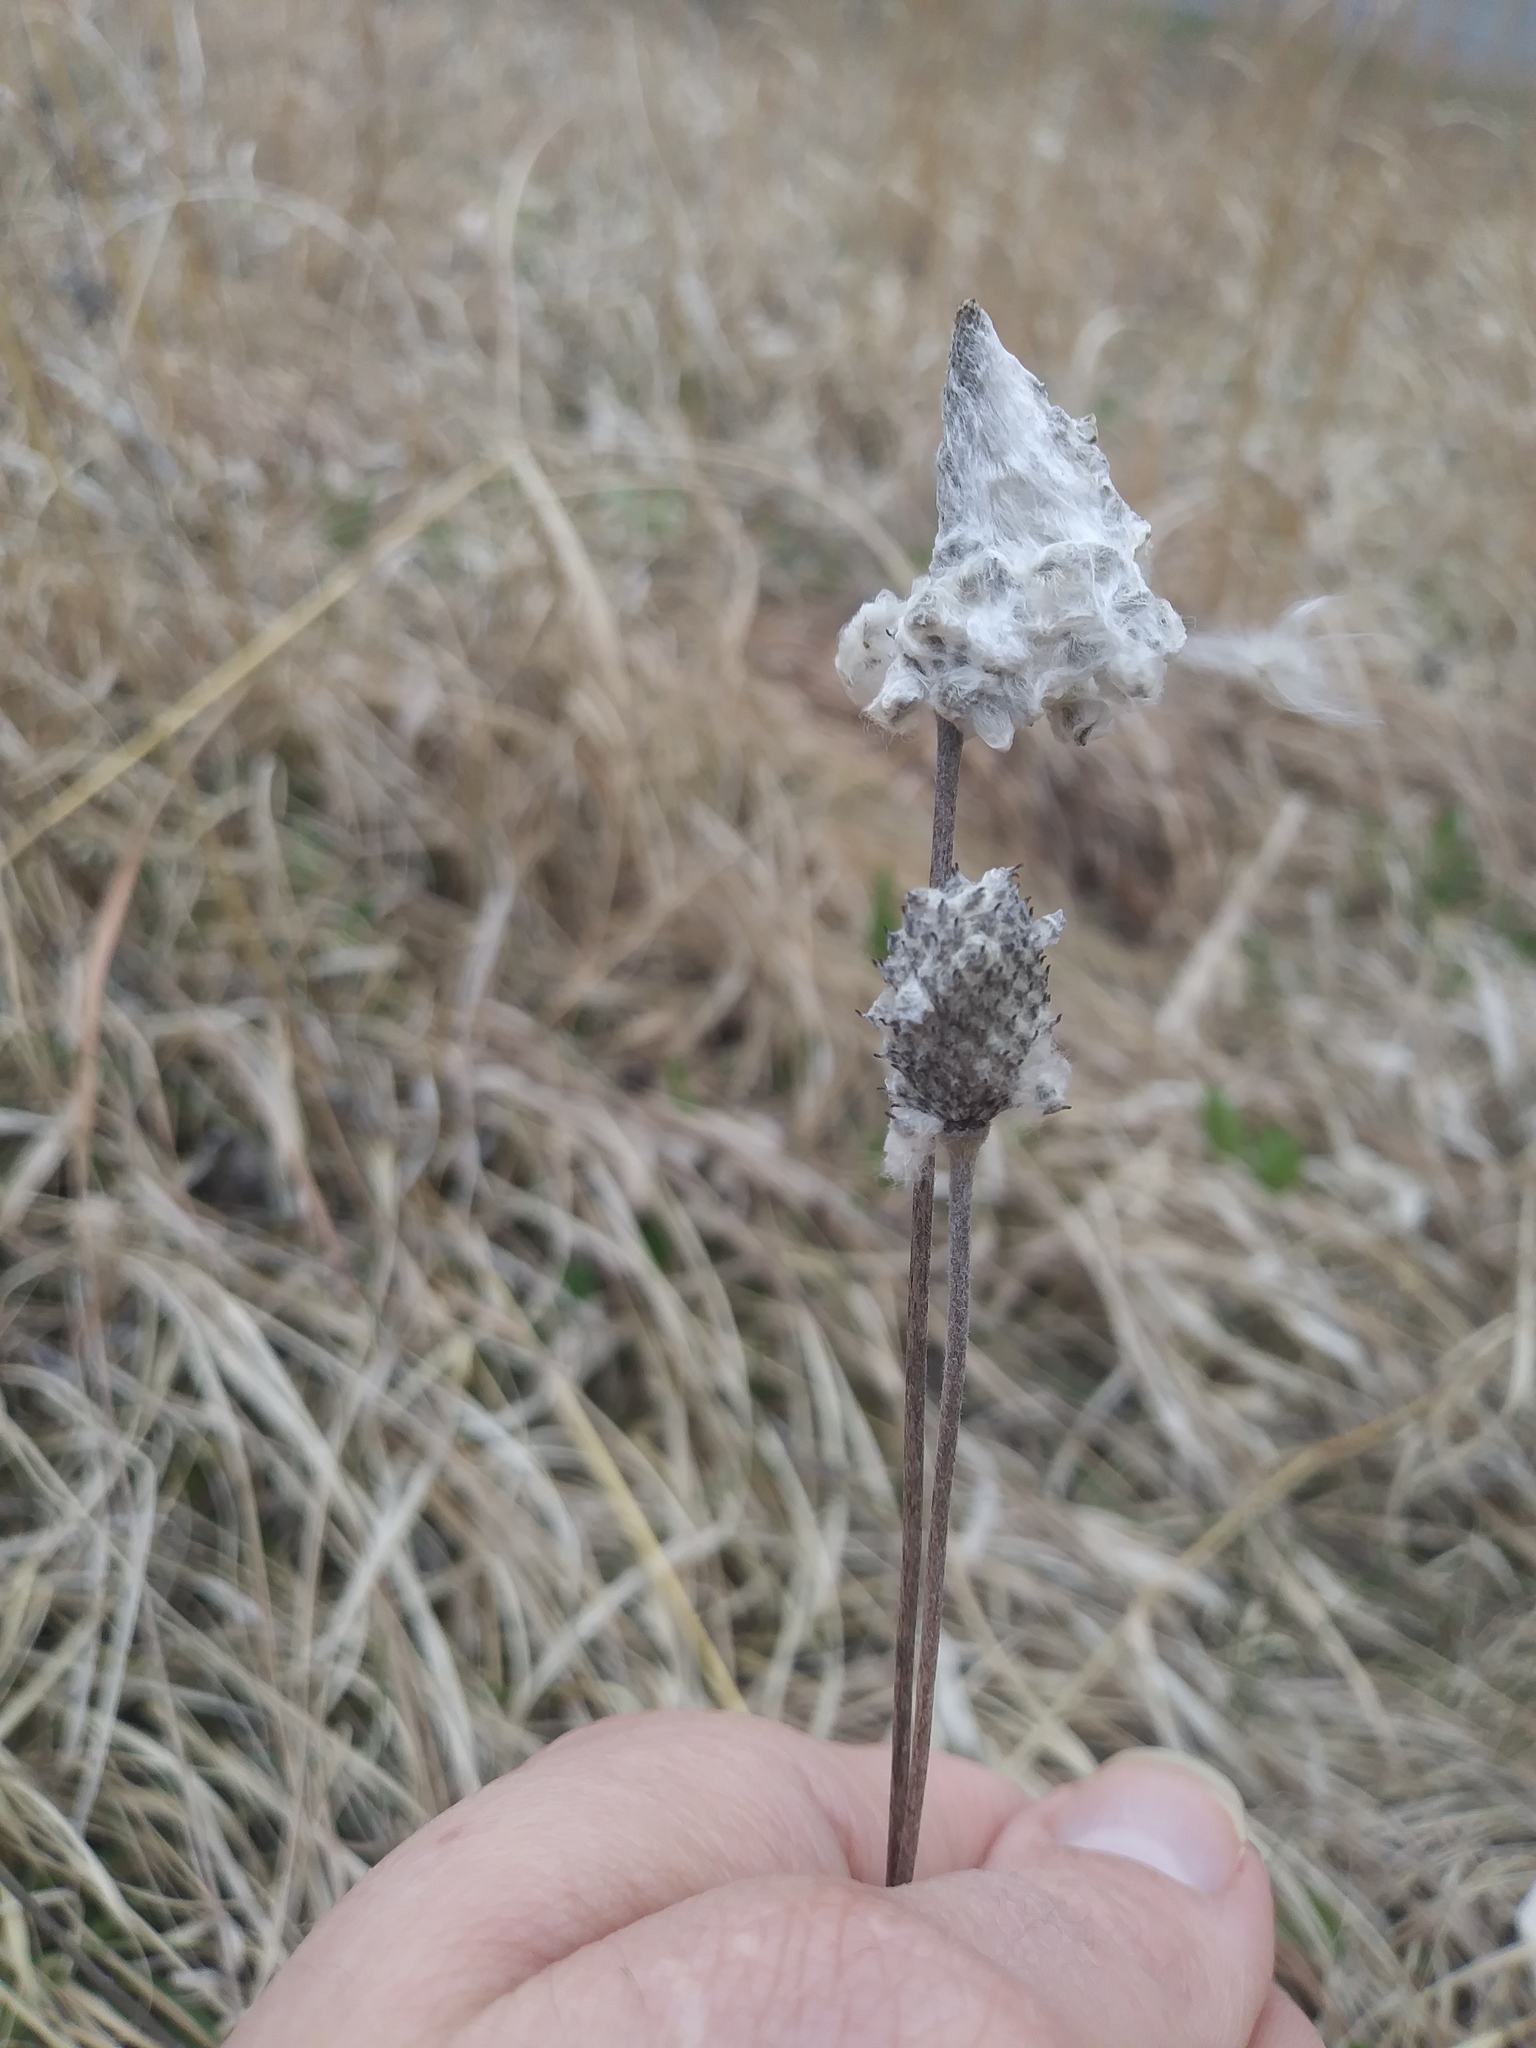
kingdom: Plantae
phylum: Tracheophyta
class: Magnoliopsida
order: Ranunculales
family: Ranunculaceae
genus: Anemone
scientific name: Anemone cylindrica
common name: Candle anemone
